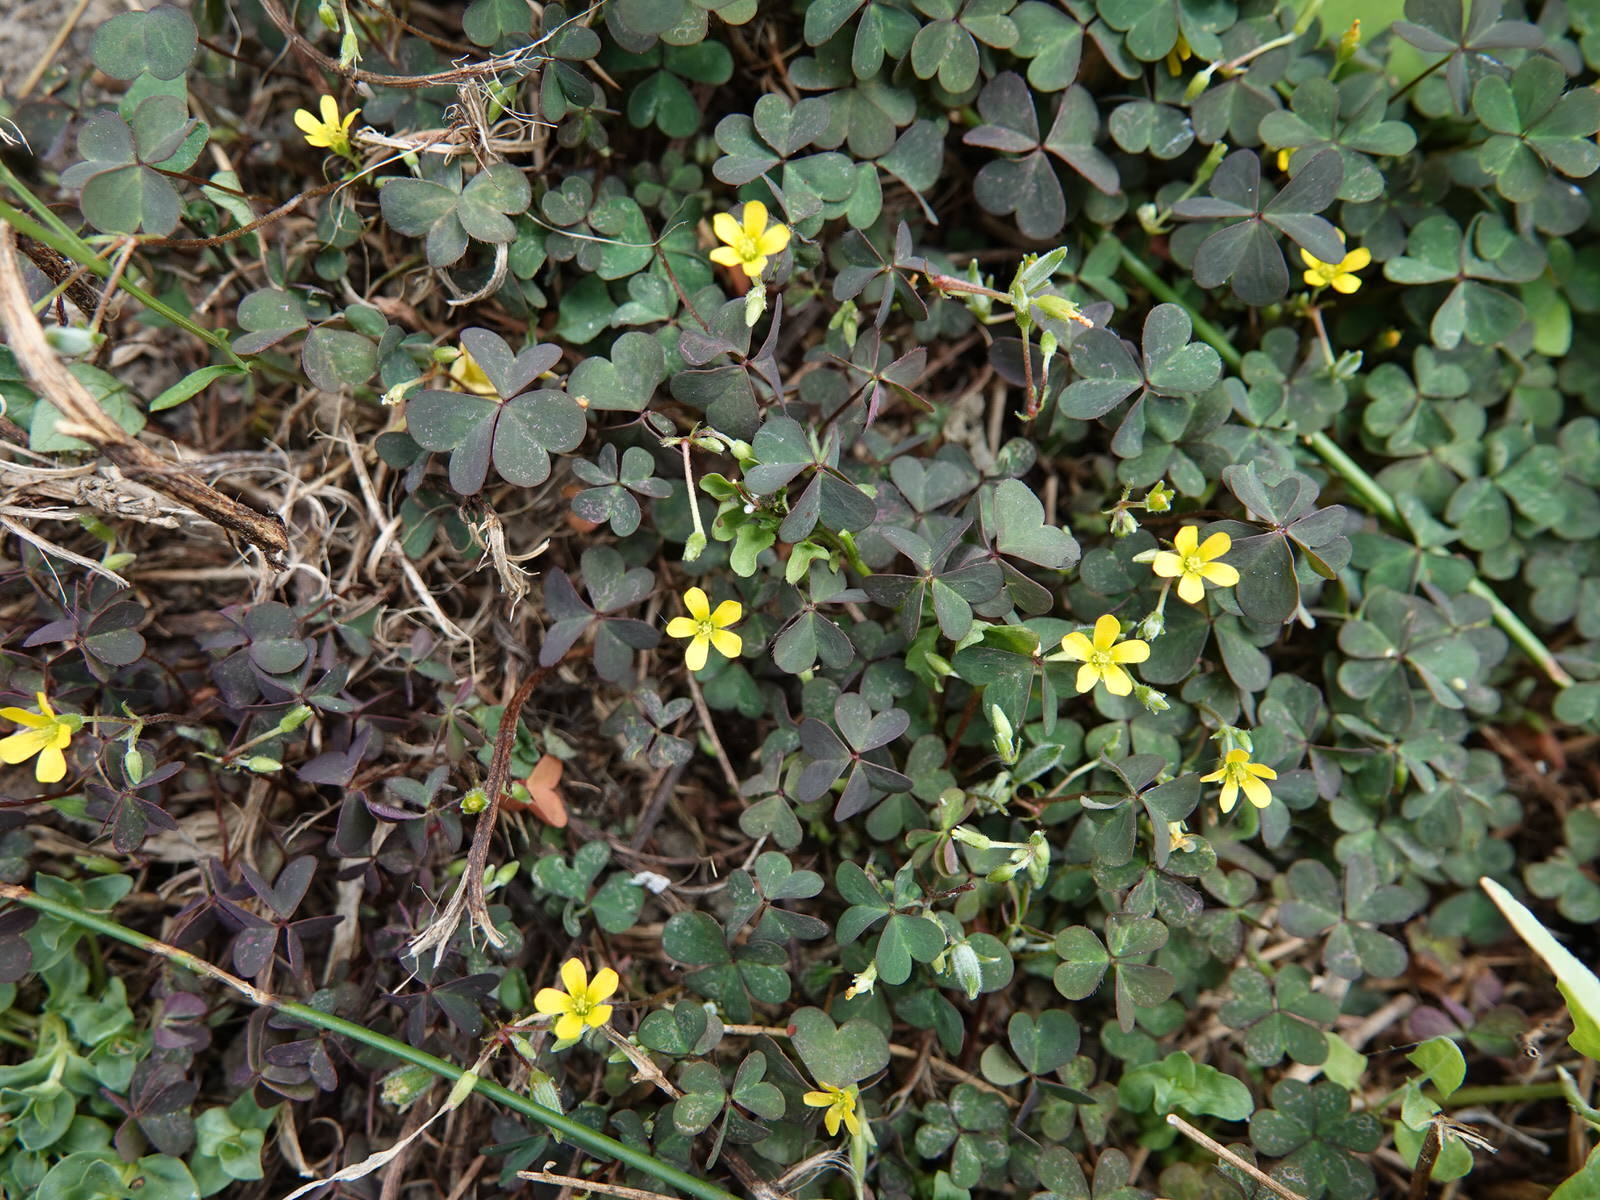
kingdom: Plantae
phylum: Tracheophyta
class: Magnoliopsida
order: Oxalidales
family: Oxalidaceae
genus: Oxalis
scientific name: Oxalis corniculata
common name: Procumbent yellow-sorrel
